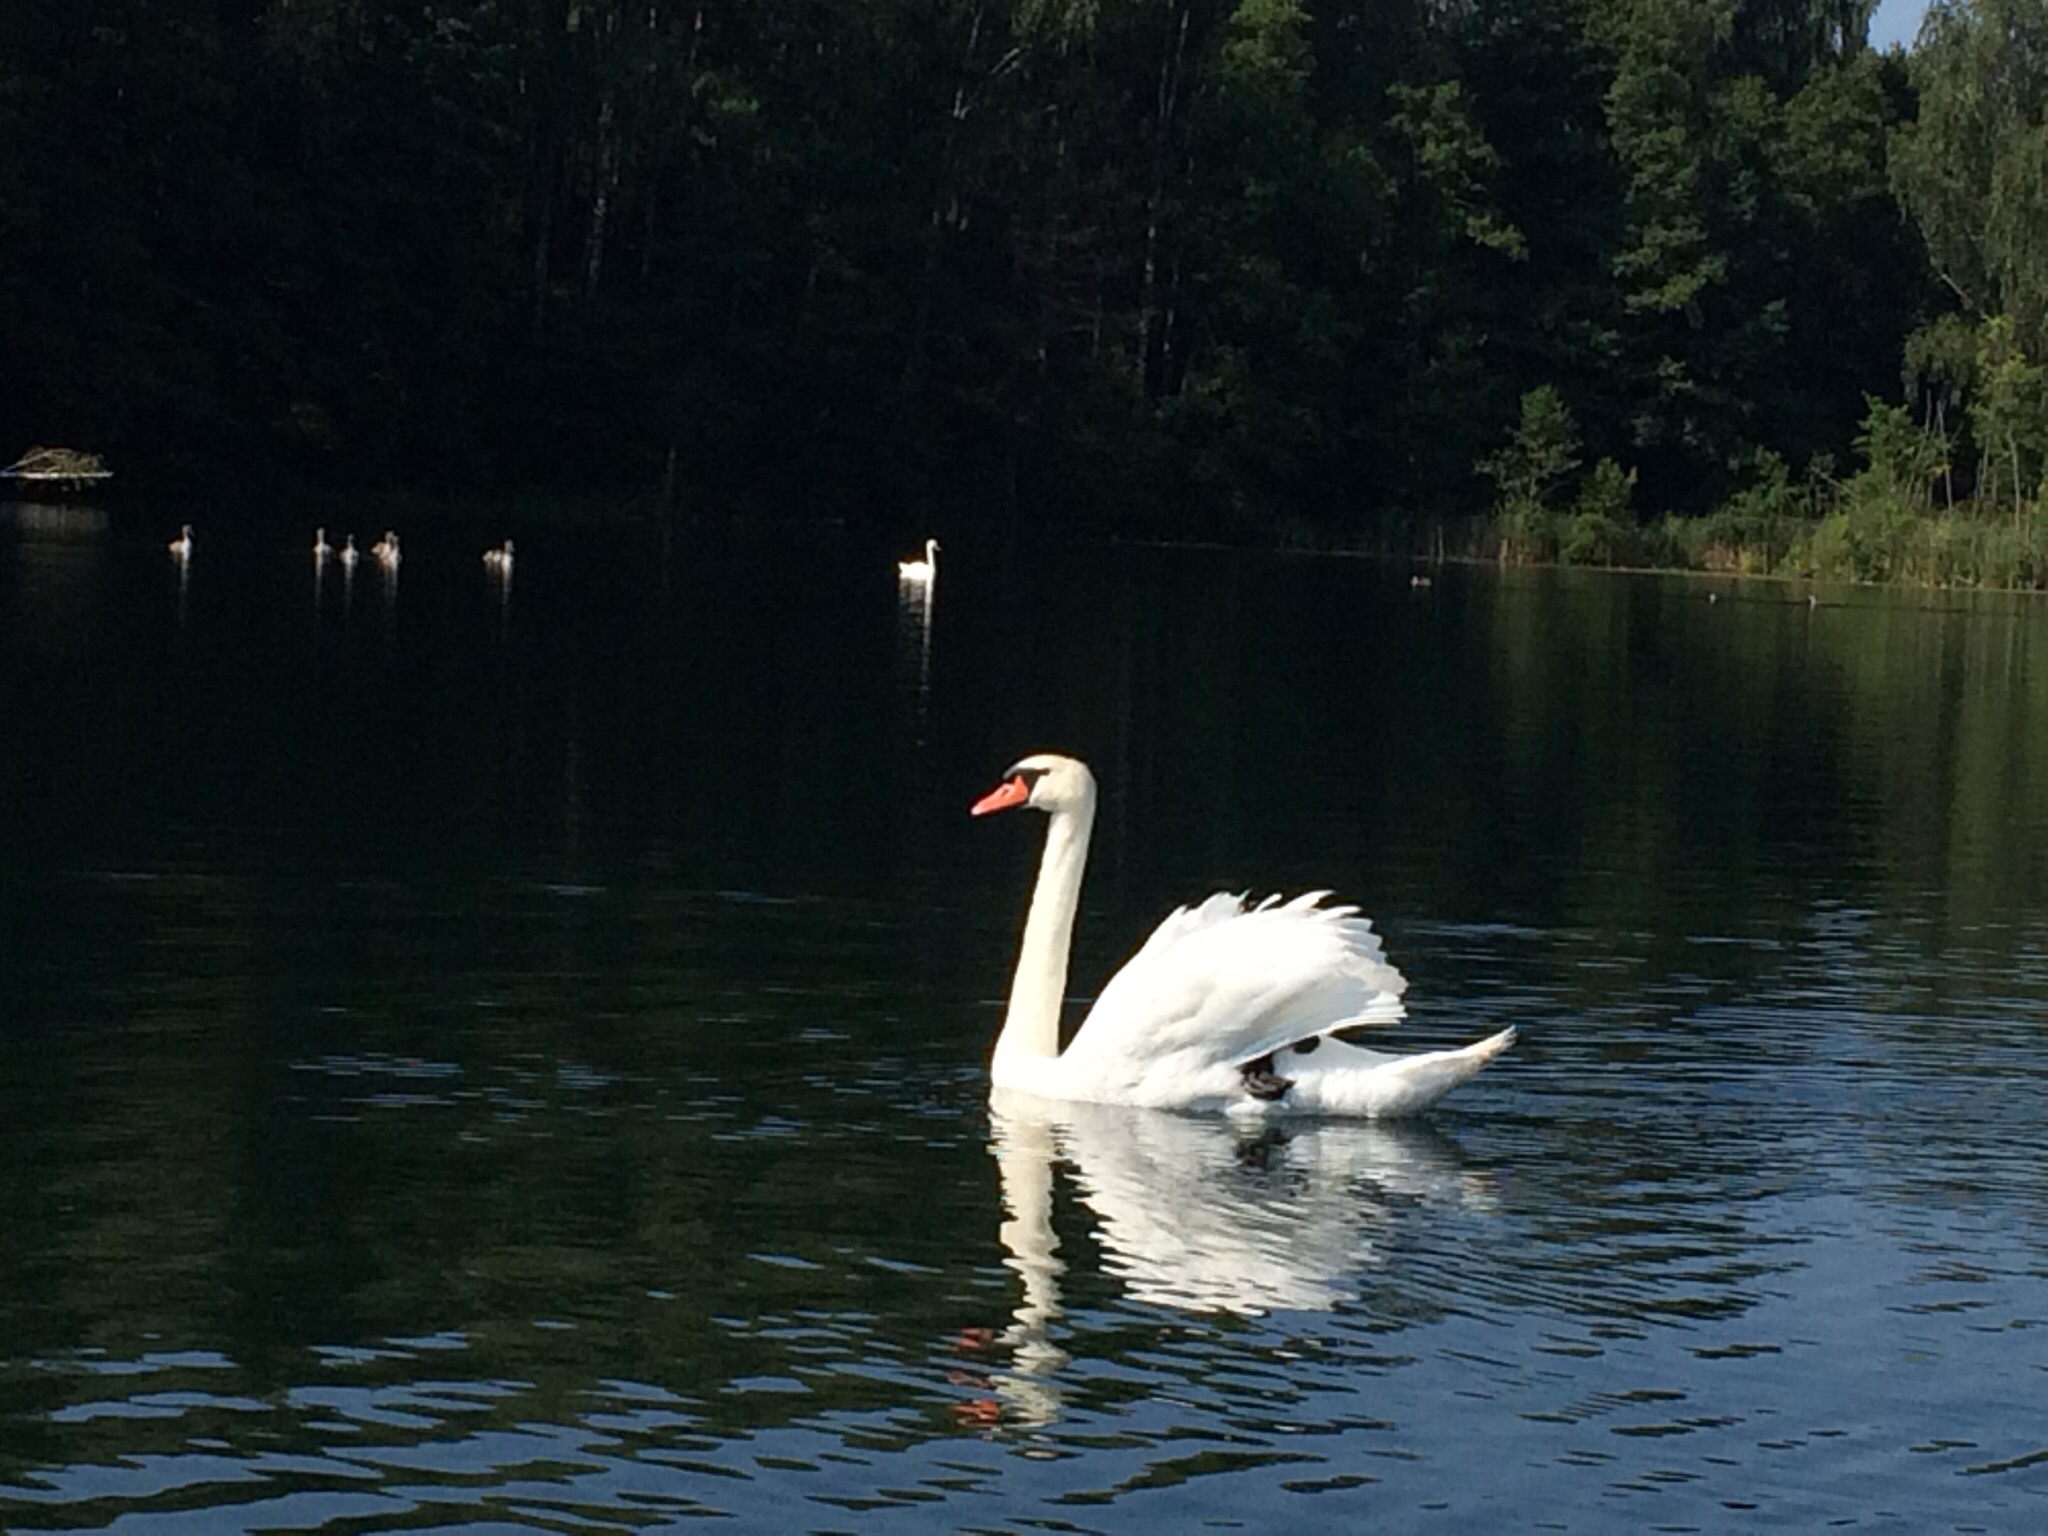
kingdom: Animalia
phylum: Chordata
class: Aves
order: Anseriformes
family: Anatidae
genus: Cygnus
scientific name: Cygnus olor
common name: Mute swan
